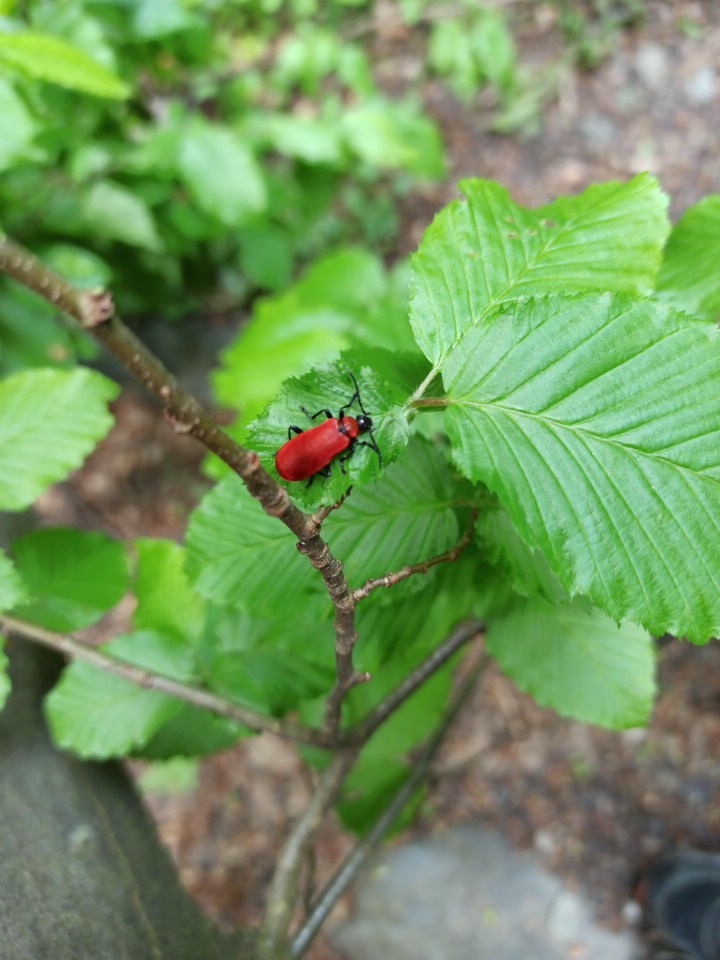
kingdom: Animalia
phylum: Arthropoda
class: Insecta
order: Coleoptera
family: Pyrochroidae
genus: Pyrochroa
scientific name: Pyrochroa coccinea
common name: Black-headed cardinal beetle
